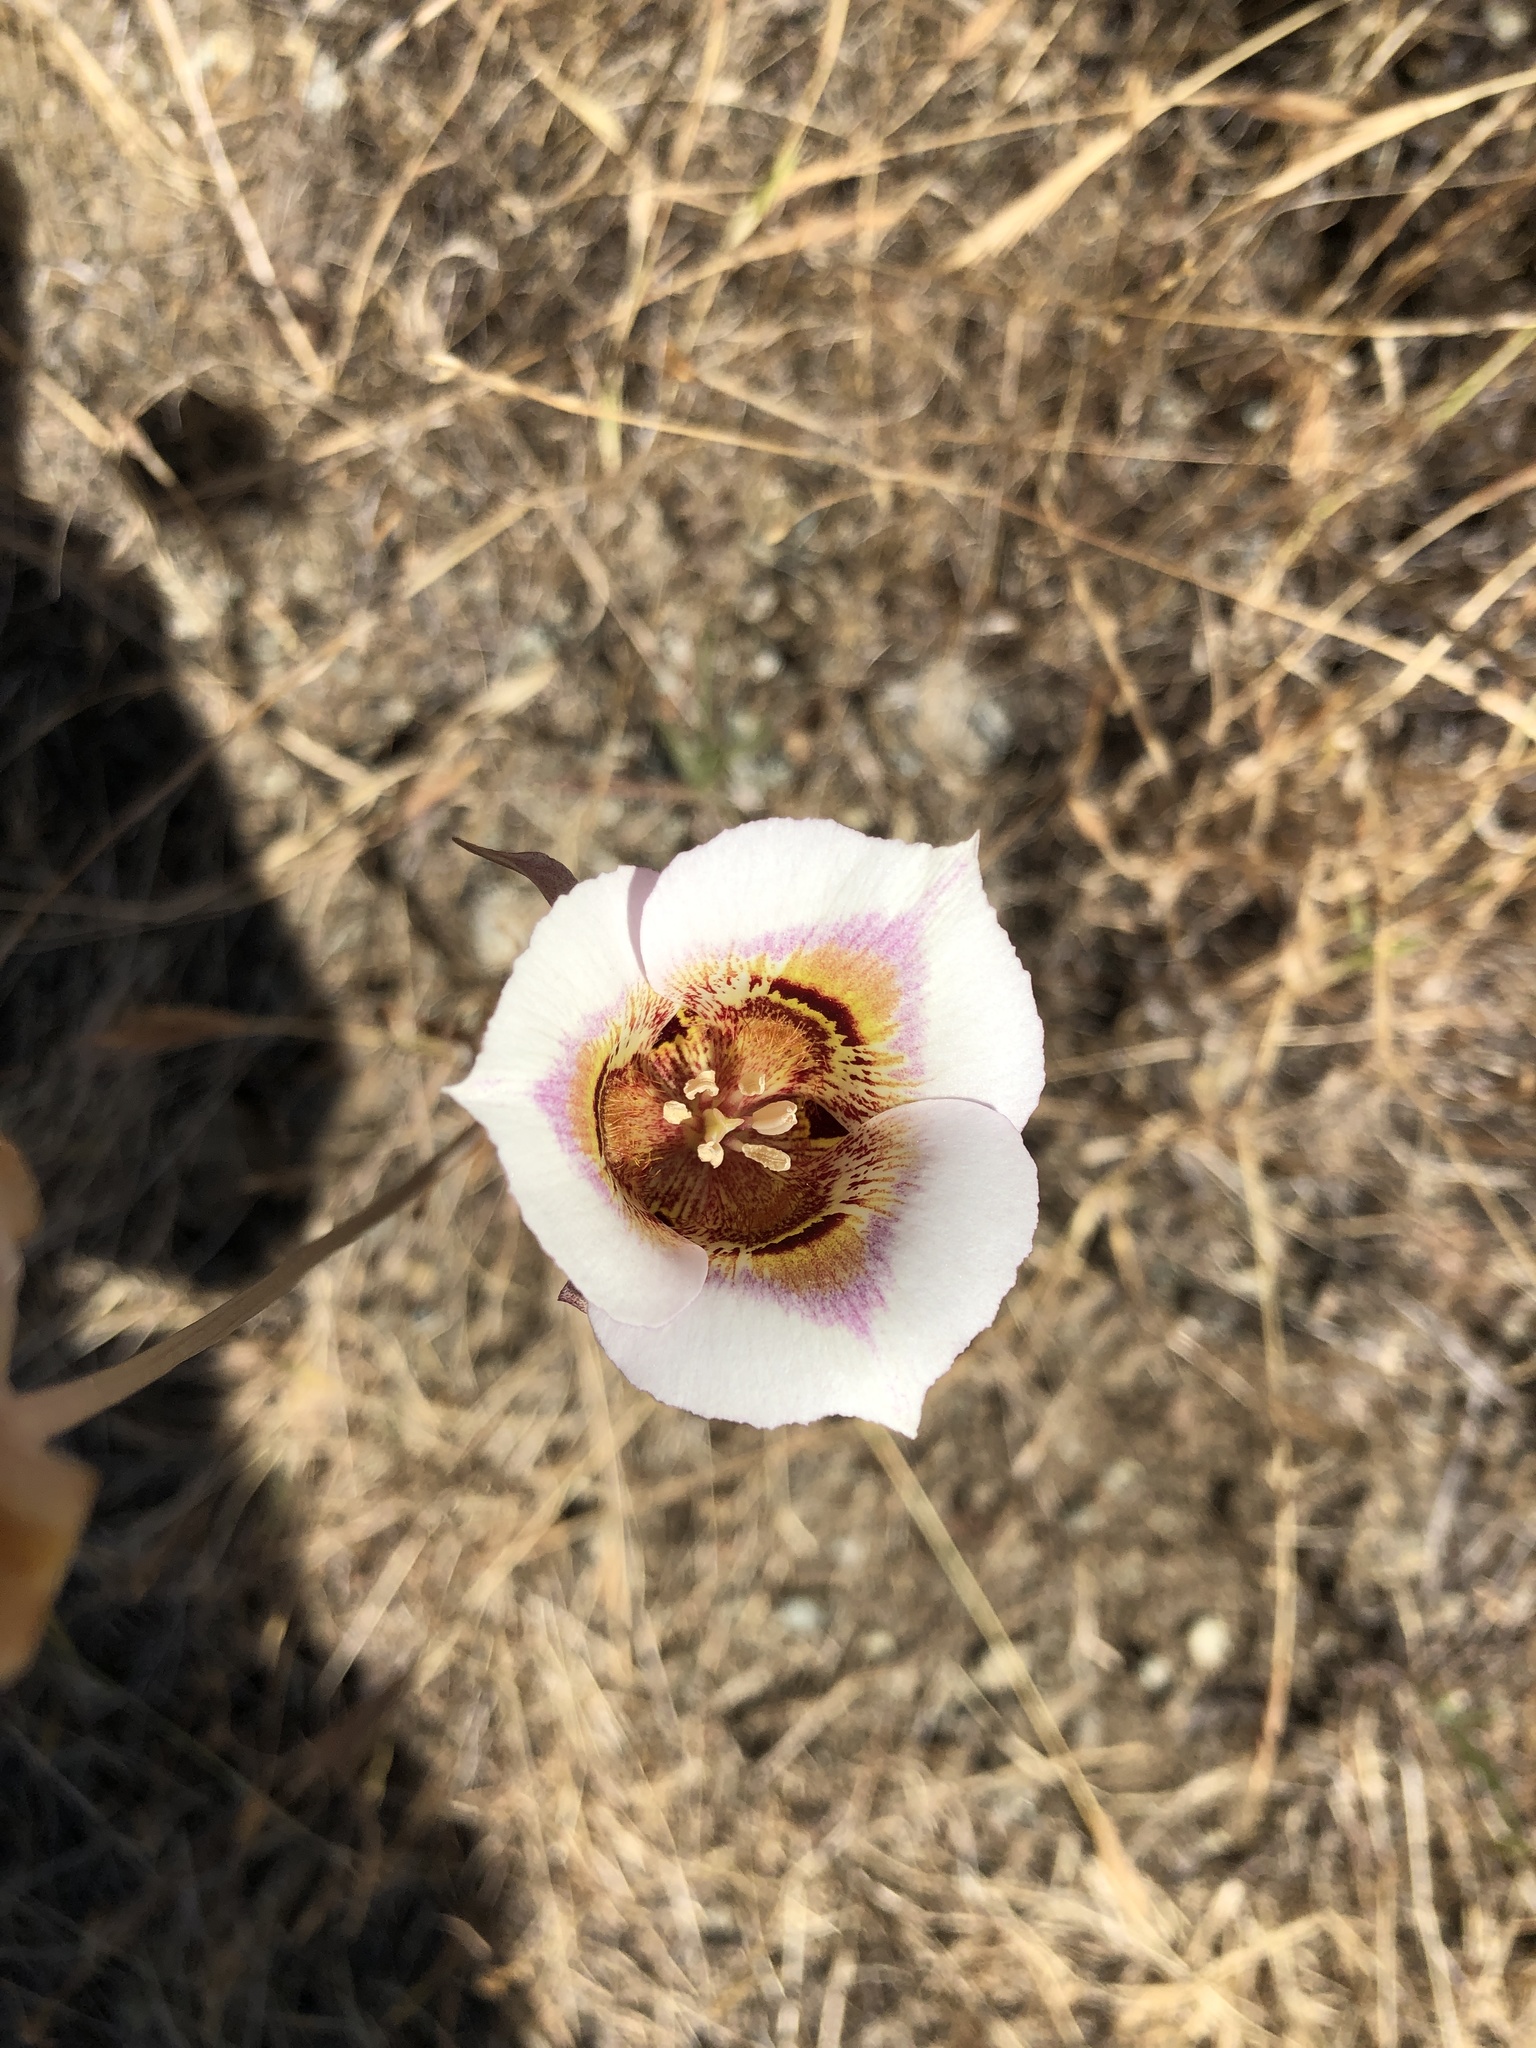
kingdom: Plantae
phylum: Tracheophyta
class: Liliopsida
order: Liliales
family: Liliaceae
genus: Calochortus
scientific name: Calochortus argillosus
